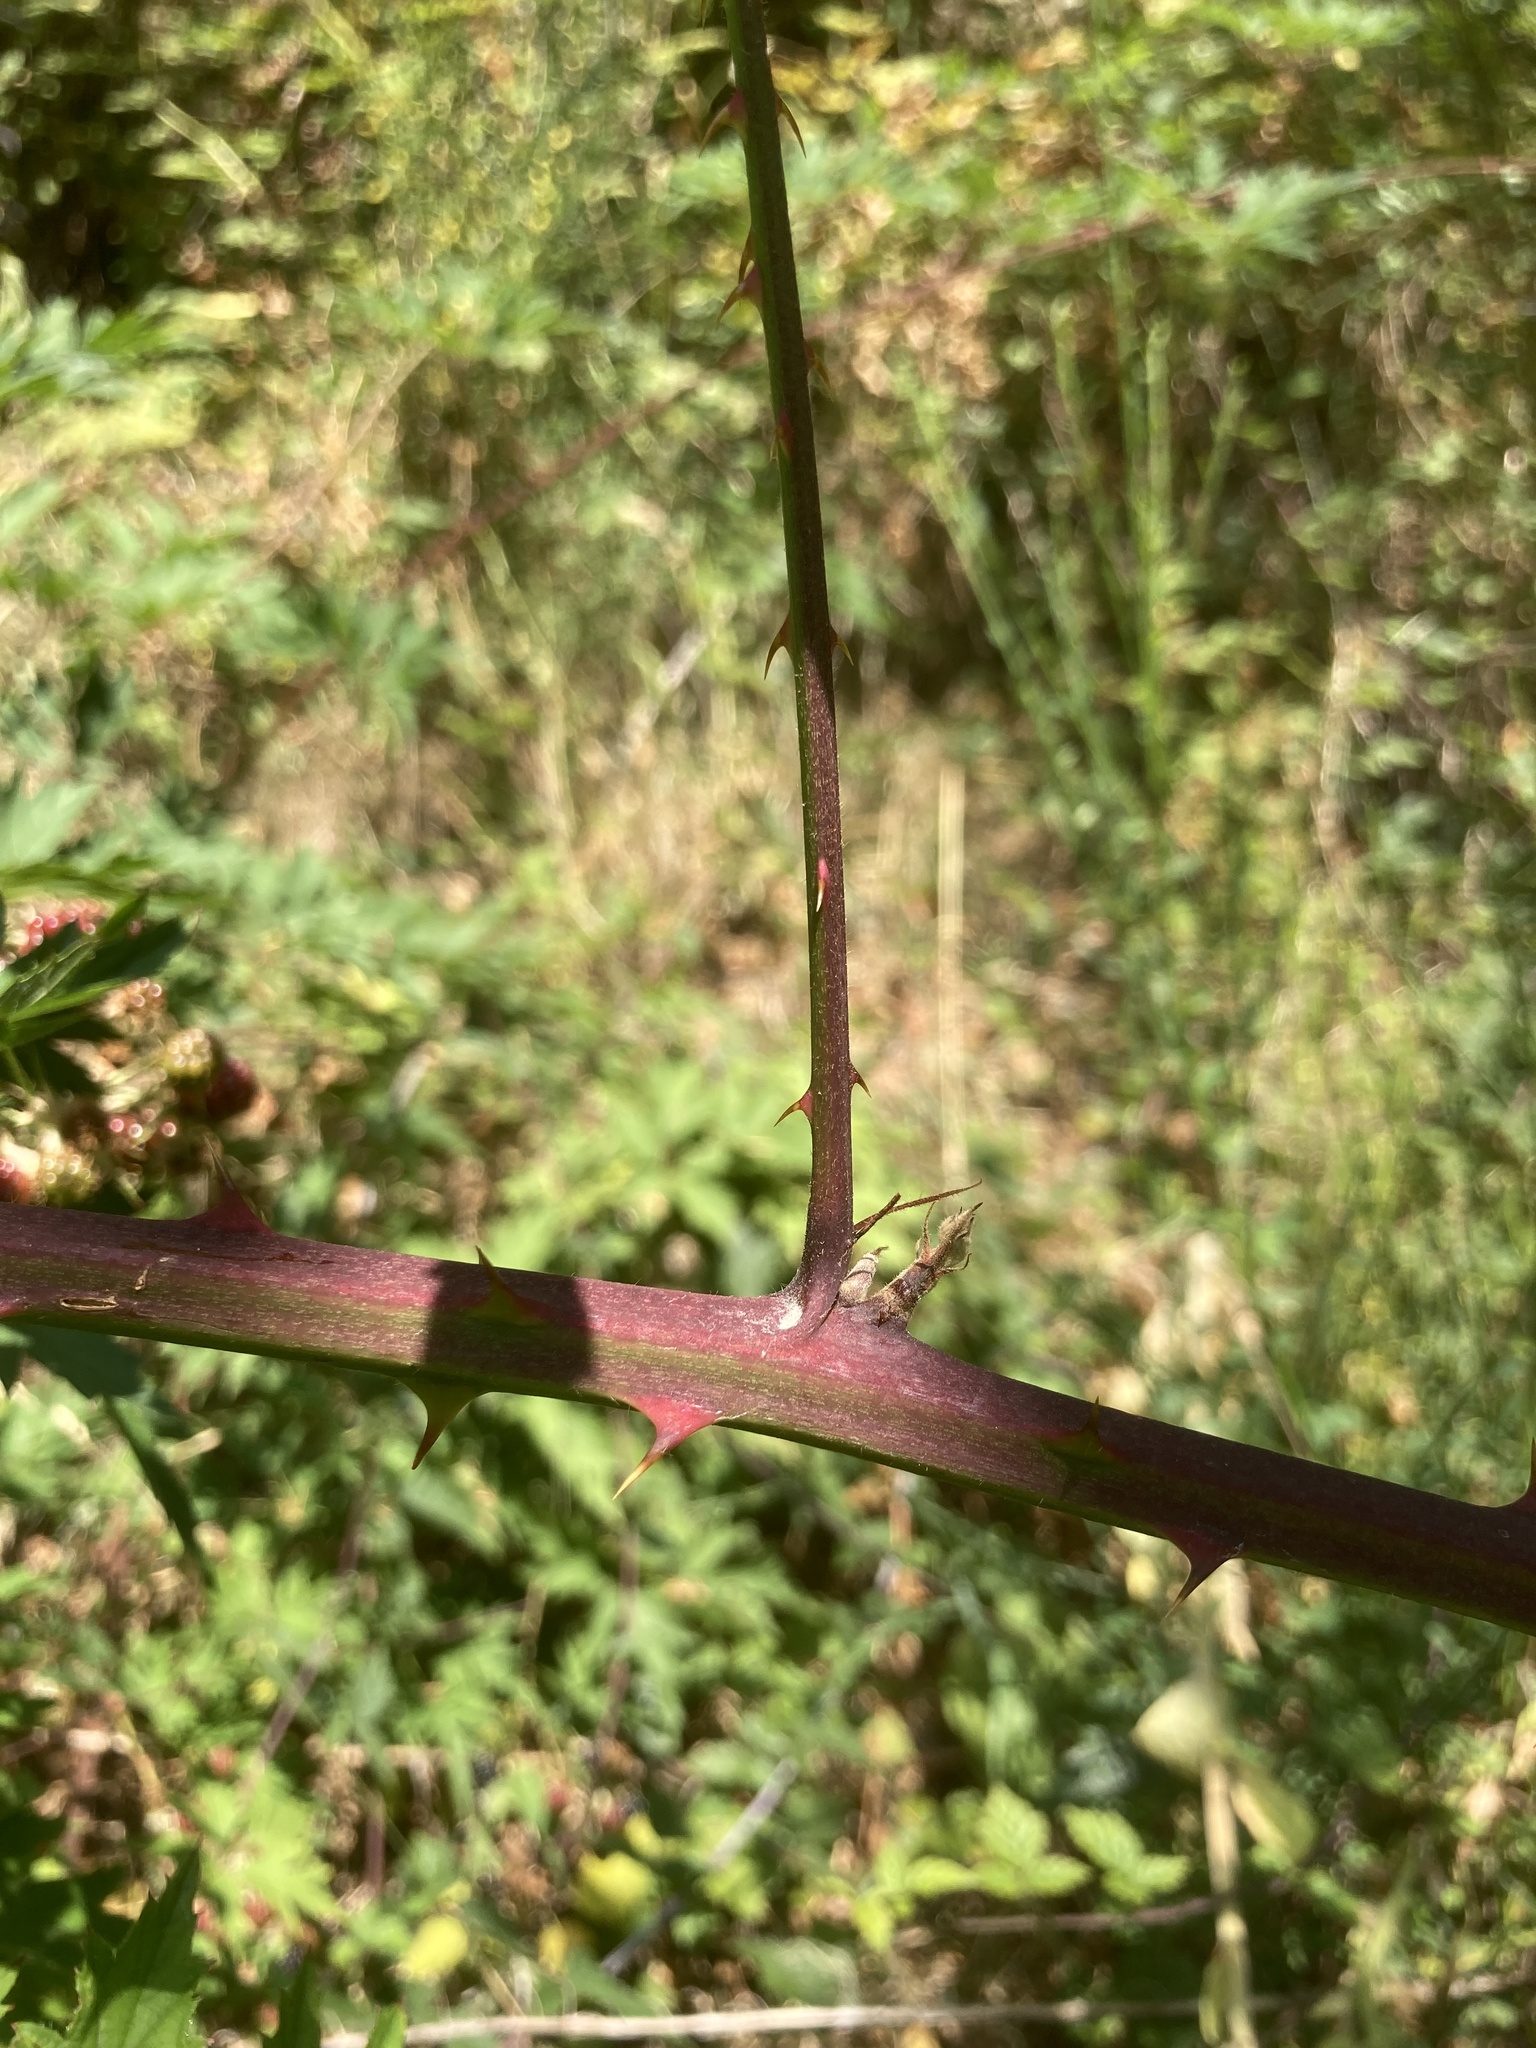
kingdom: Plantae
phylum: Tracheophyta
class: Magnoliopsida
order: Rosales
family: Rosaceae
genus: Rubus
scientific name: Rubus laciniatus
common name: Evergreen blackberry
